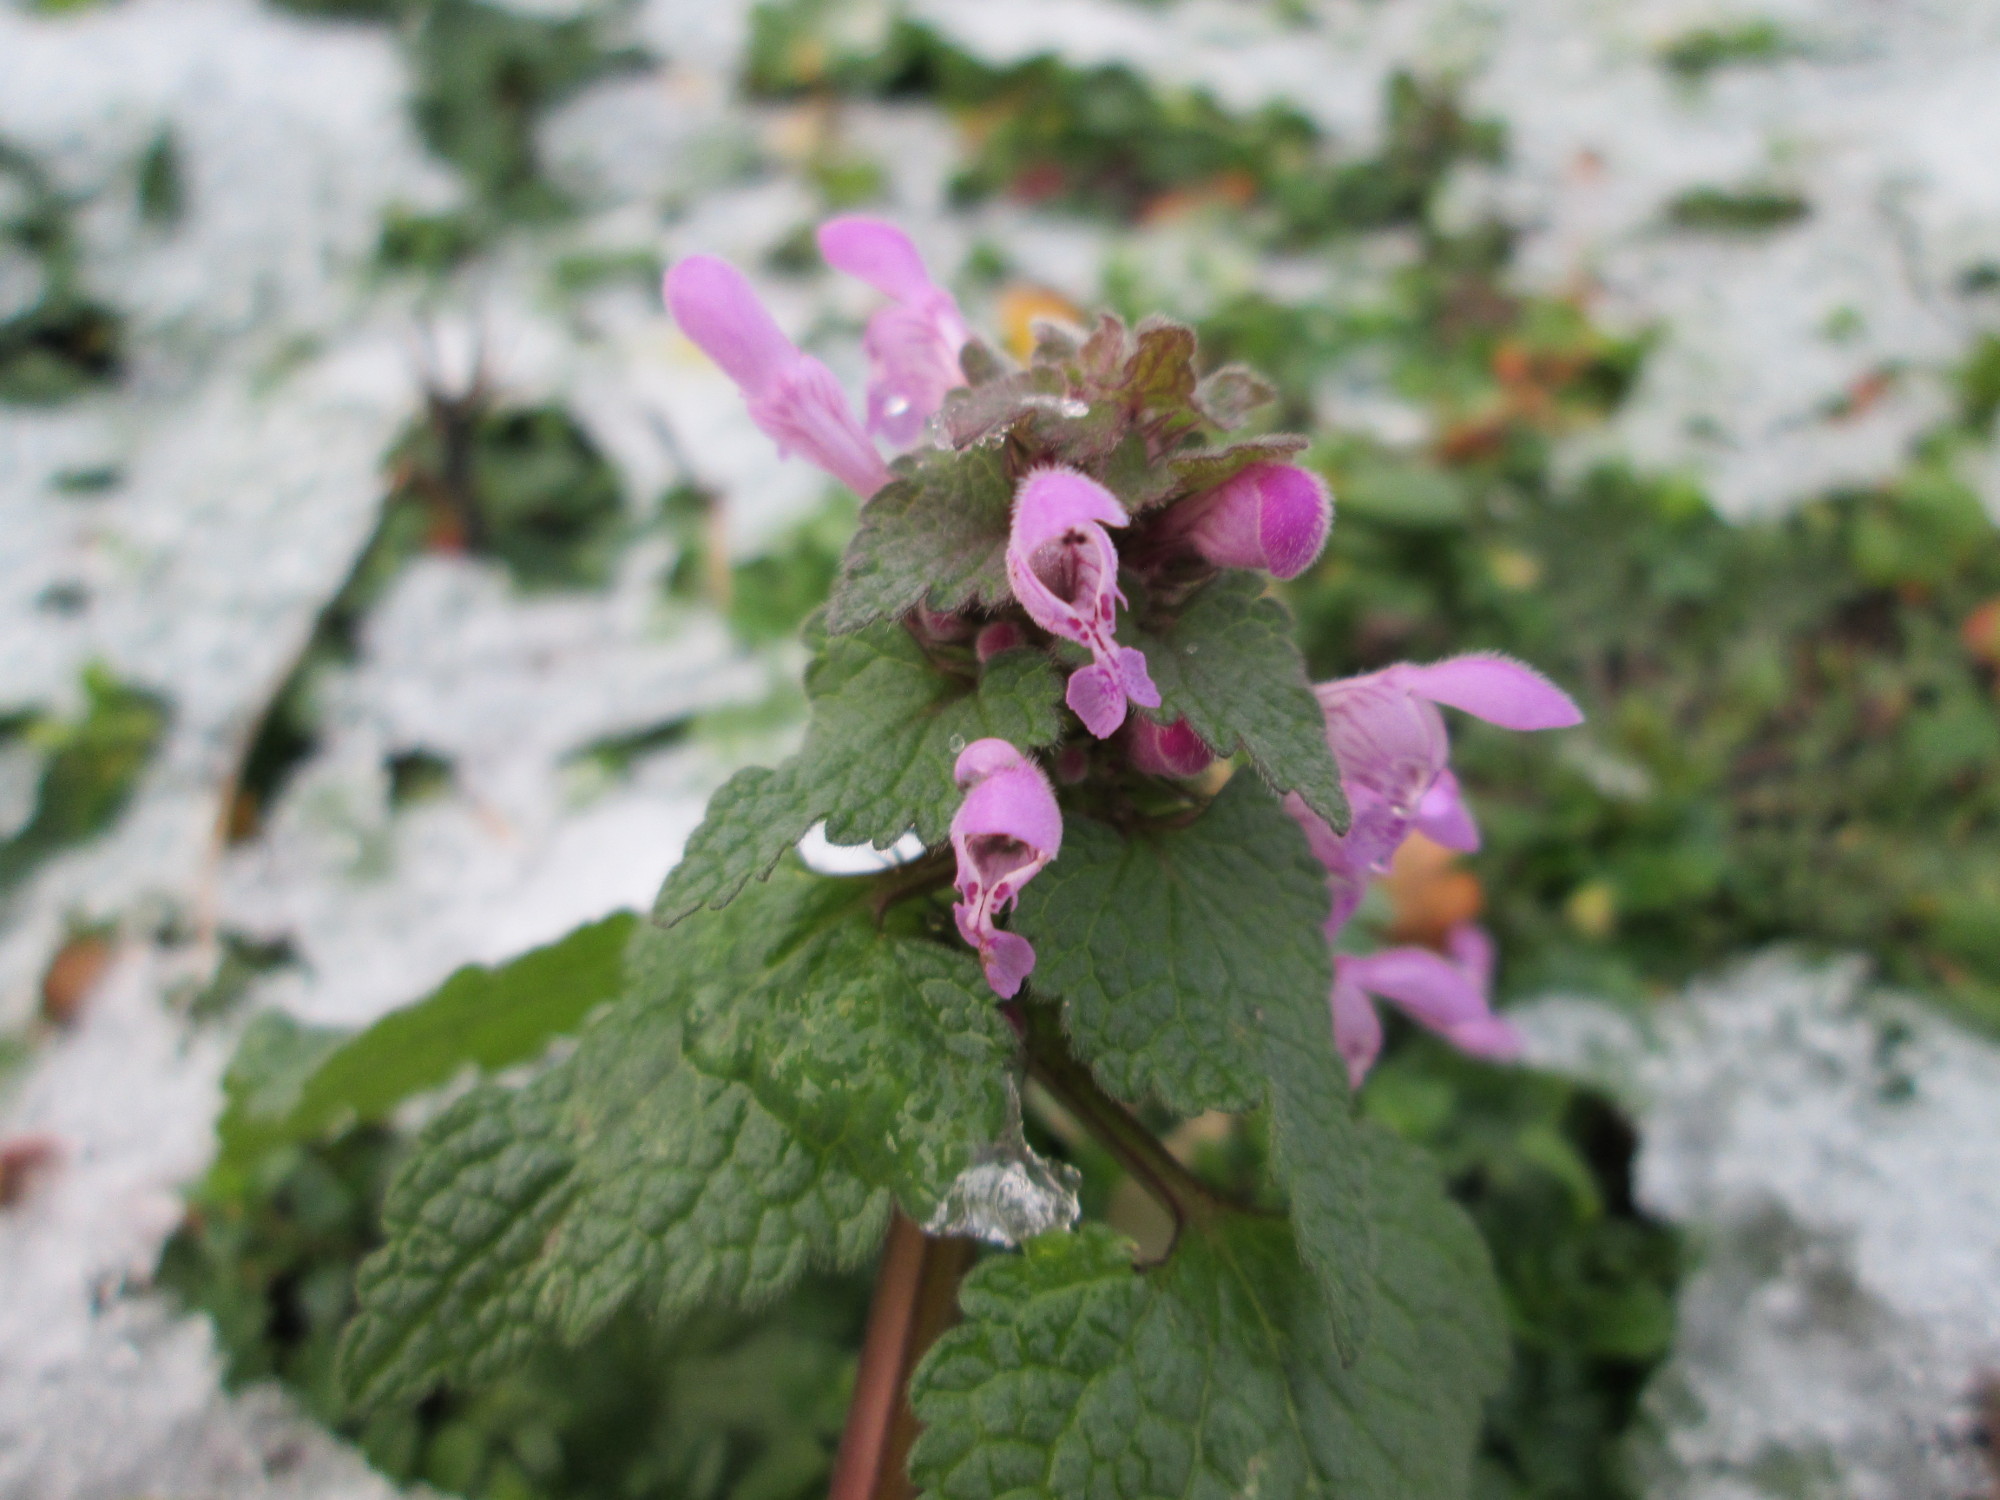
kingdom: Plantae
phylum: Tracheophyta
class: Magnoliopsida
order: Lamiales
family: Lamiaceae
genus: Lamium
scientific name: Lamium purpureum
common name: Red dead-nettle
